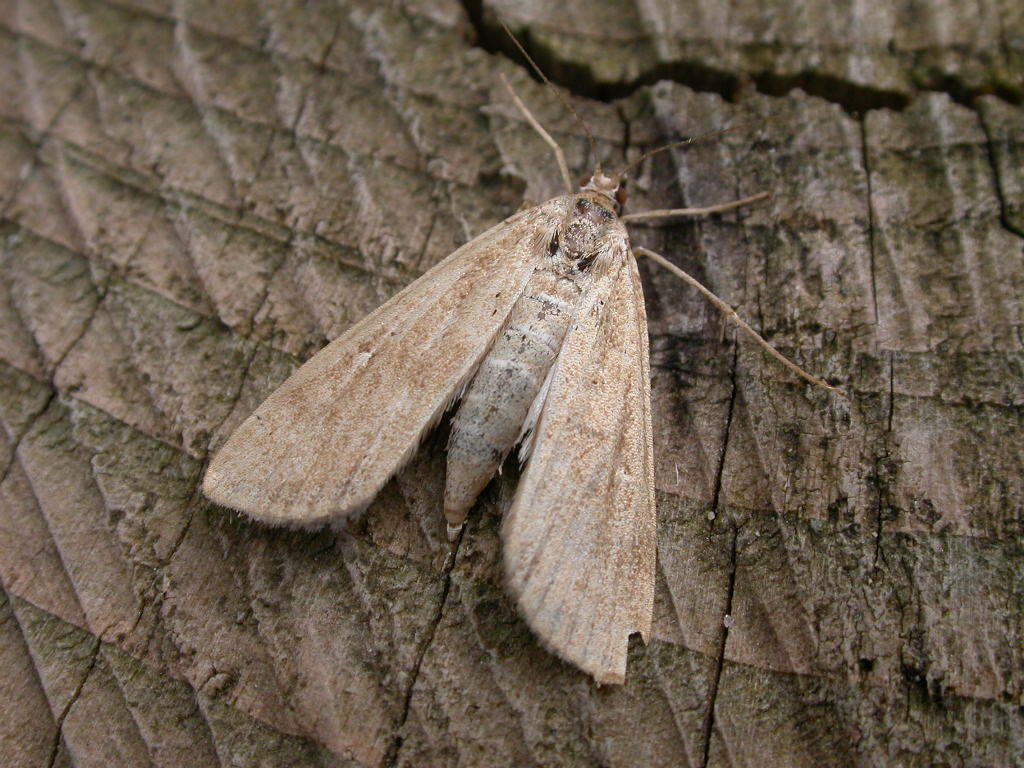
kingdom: Animalia
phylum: Arthropoda
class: Insecta
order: Lepidoptera
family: Crambidae
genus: Parapoynx
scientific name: Parapoynx stratiotata
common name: Ringed china-mark
